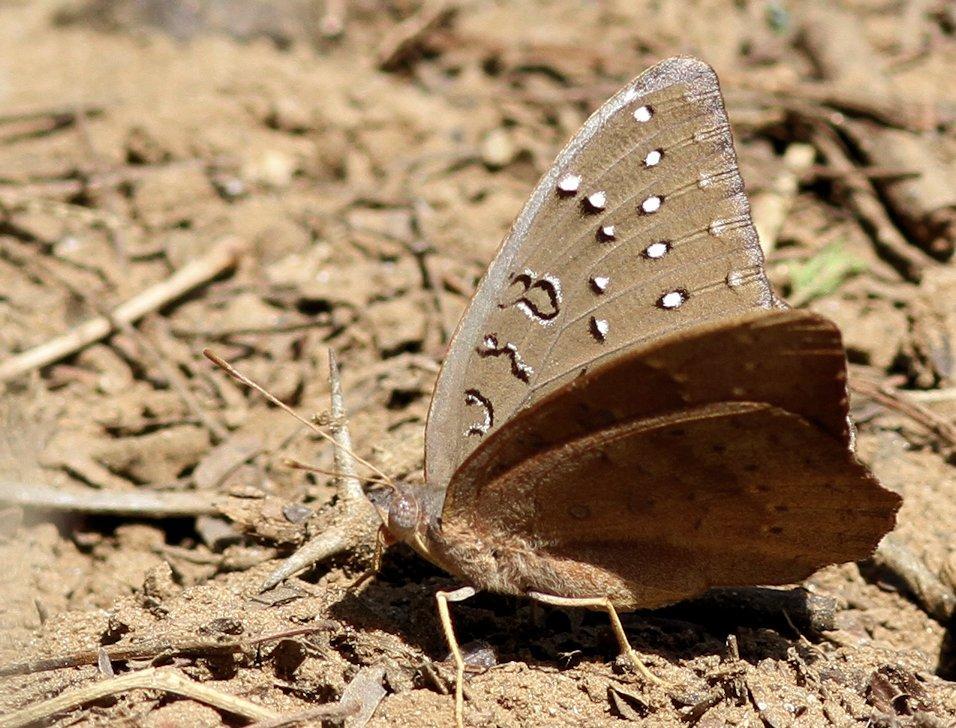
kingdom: Animalia
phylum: Arthropoda
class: Insecta
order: Lepidoptera
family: Nymphalidae
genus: Hamanumida
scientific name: Hamanumida daedalus
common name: Guinea-fowl butterfly
